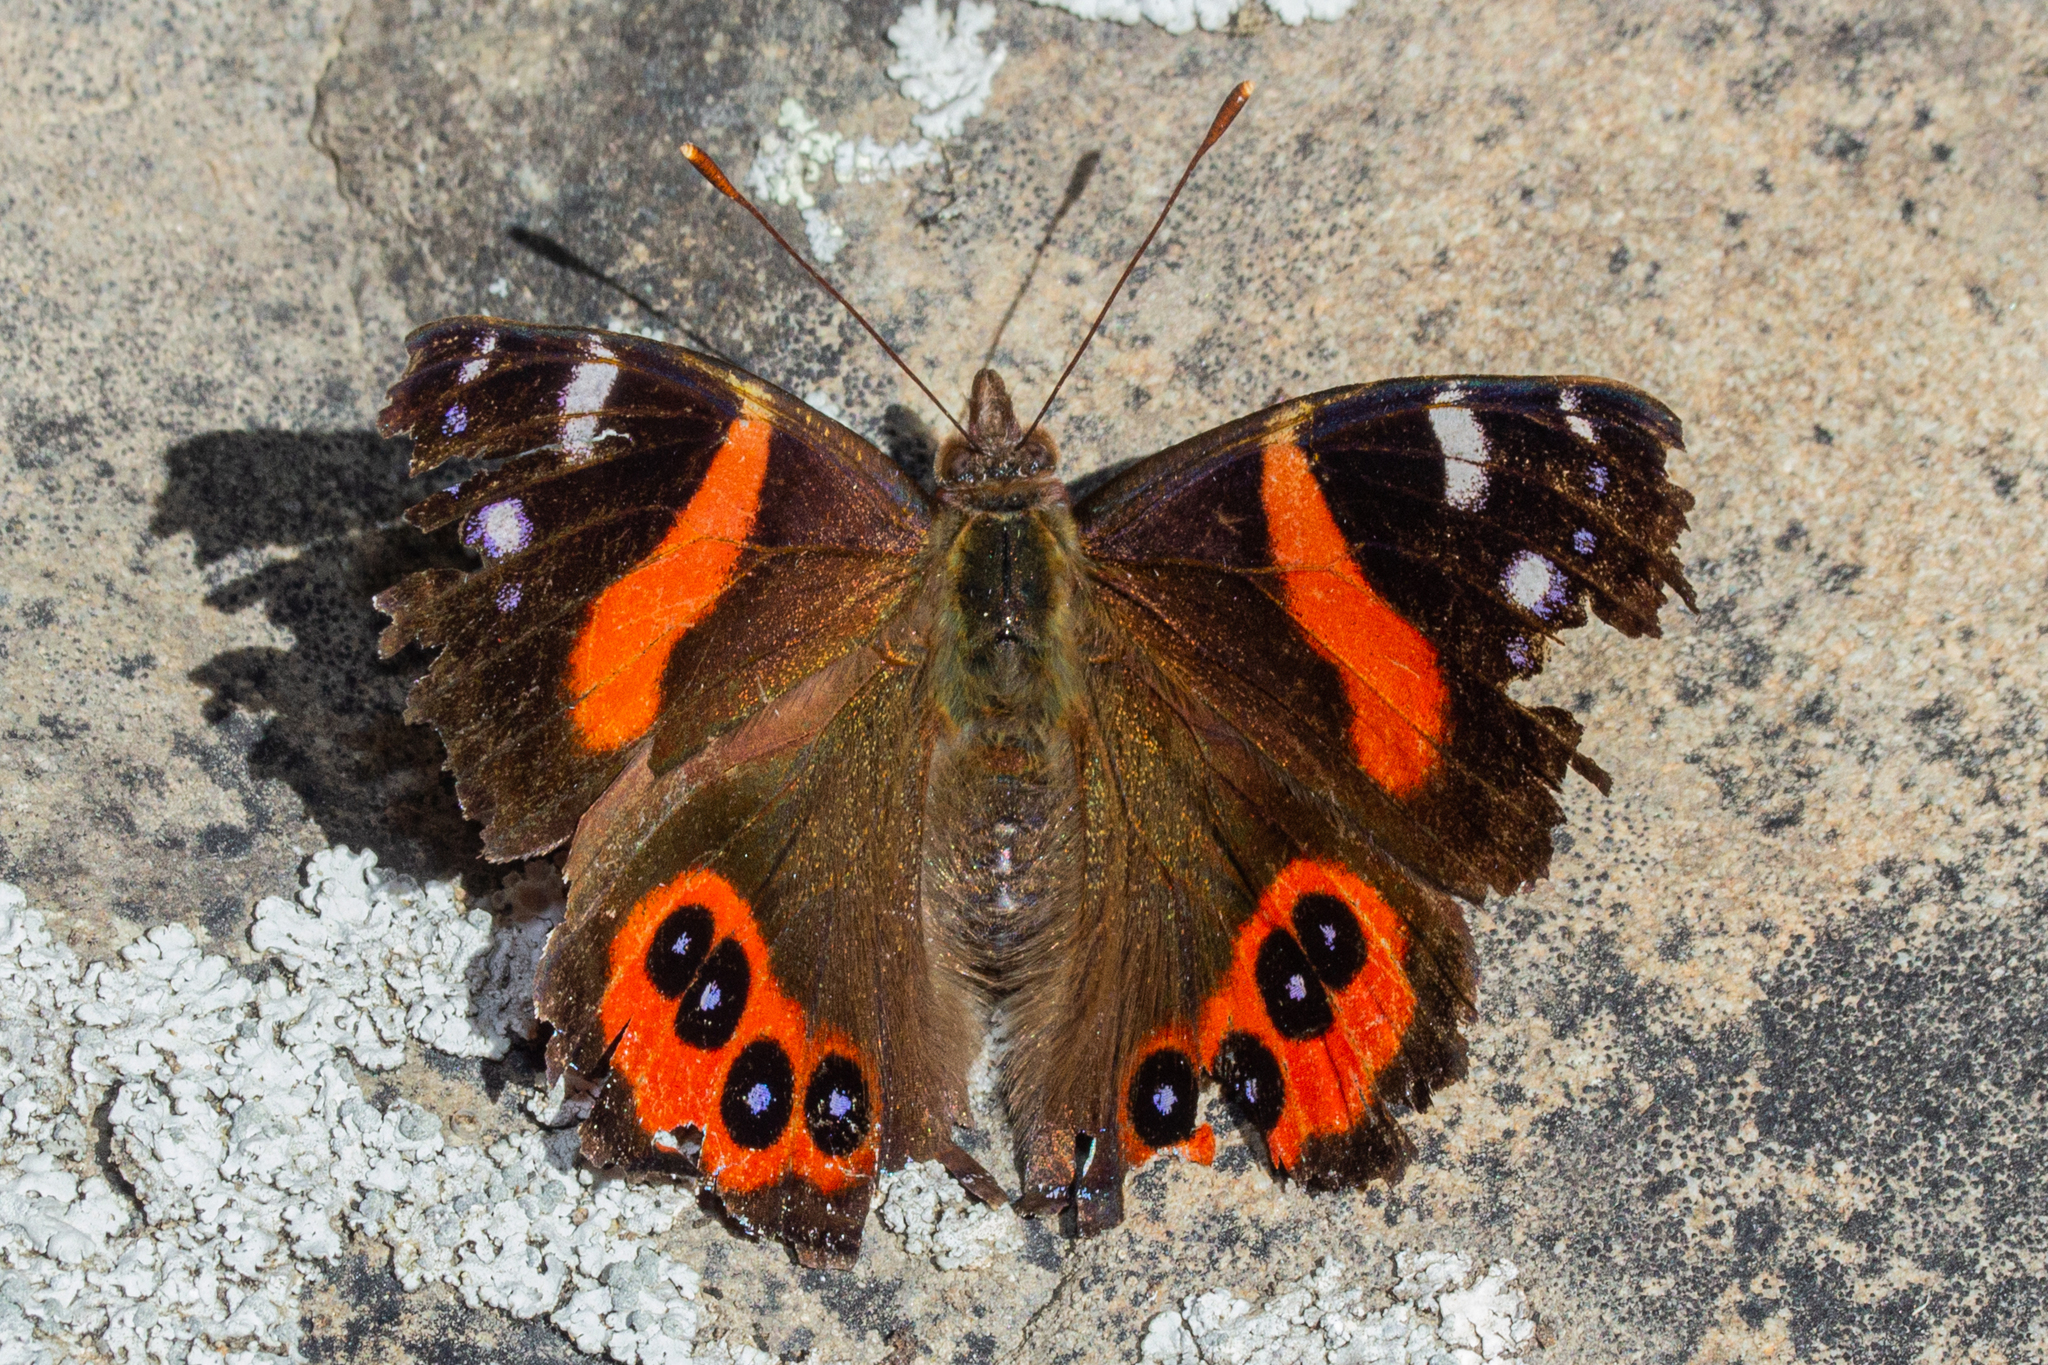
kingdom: Animalia
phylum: Arthropoda
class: Insecta
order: Lepidoptera
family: Nymphalidae
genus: Vanessa
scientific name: Vanessa gonerilla
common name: New zealand red admiral
